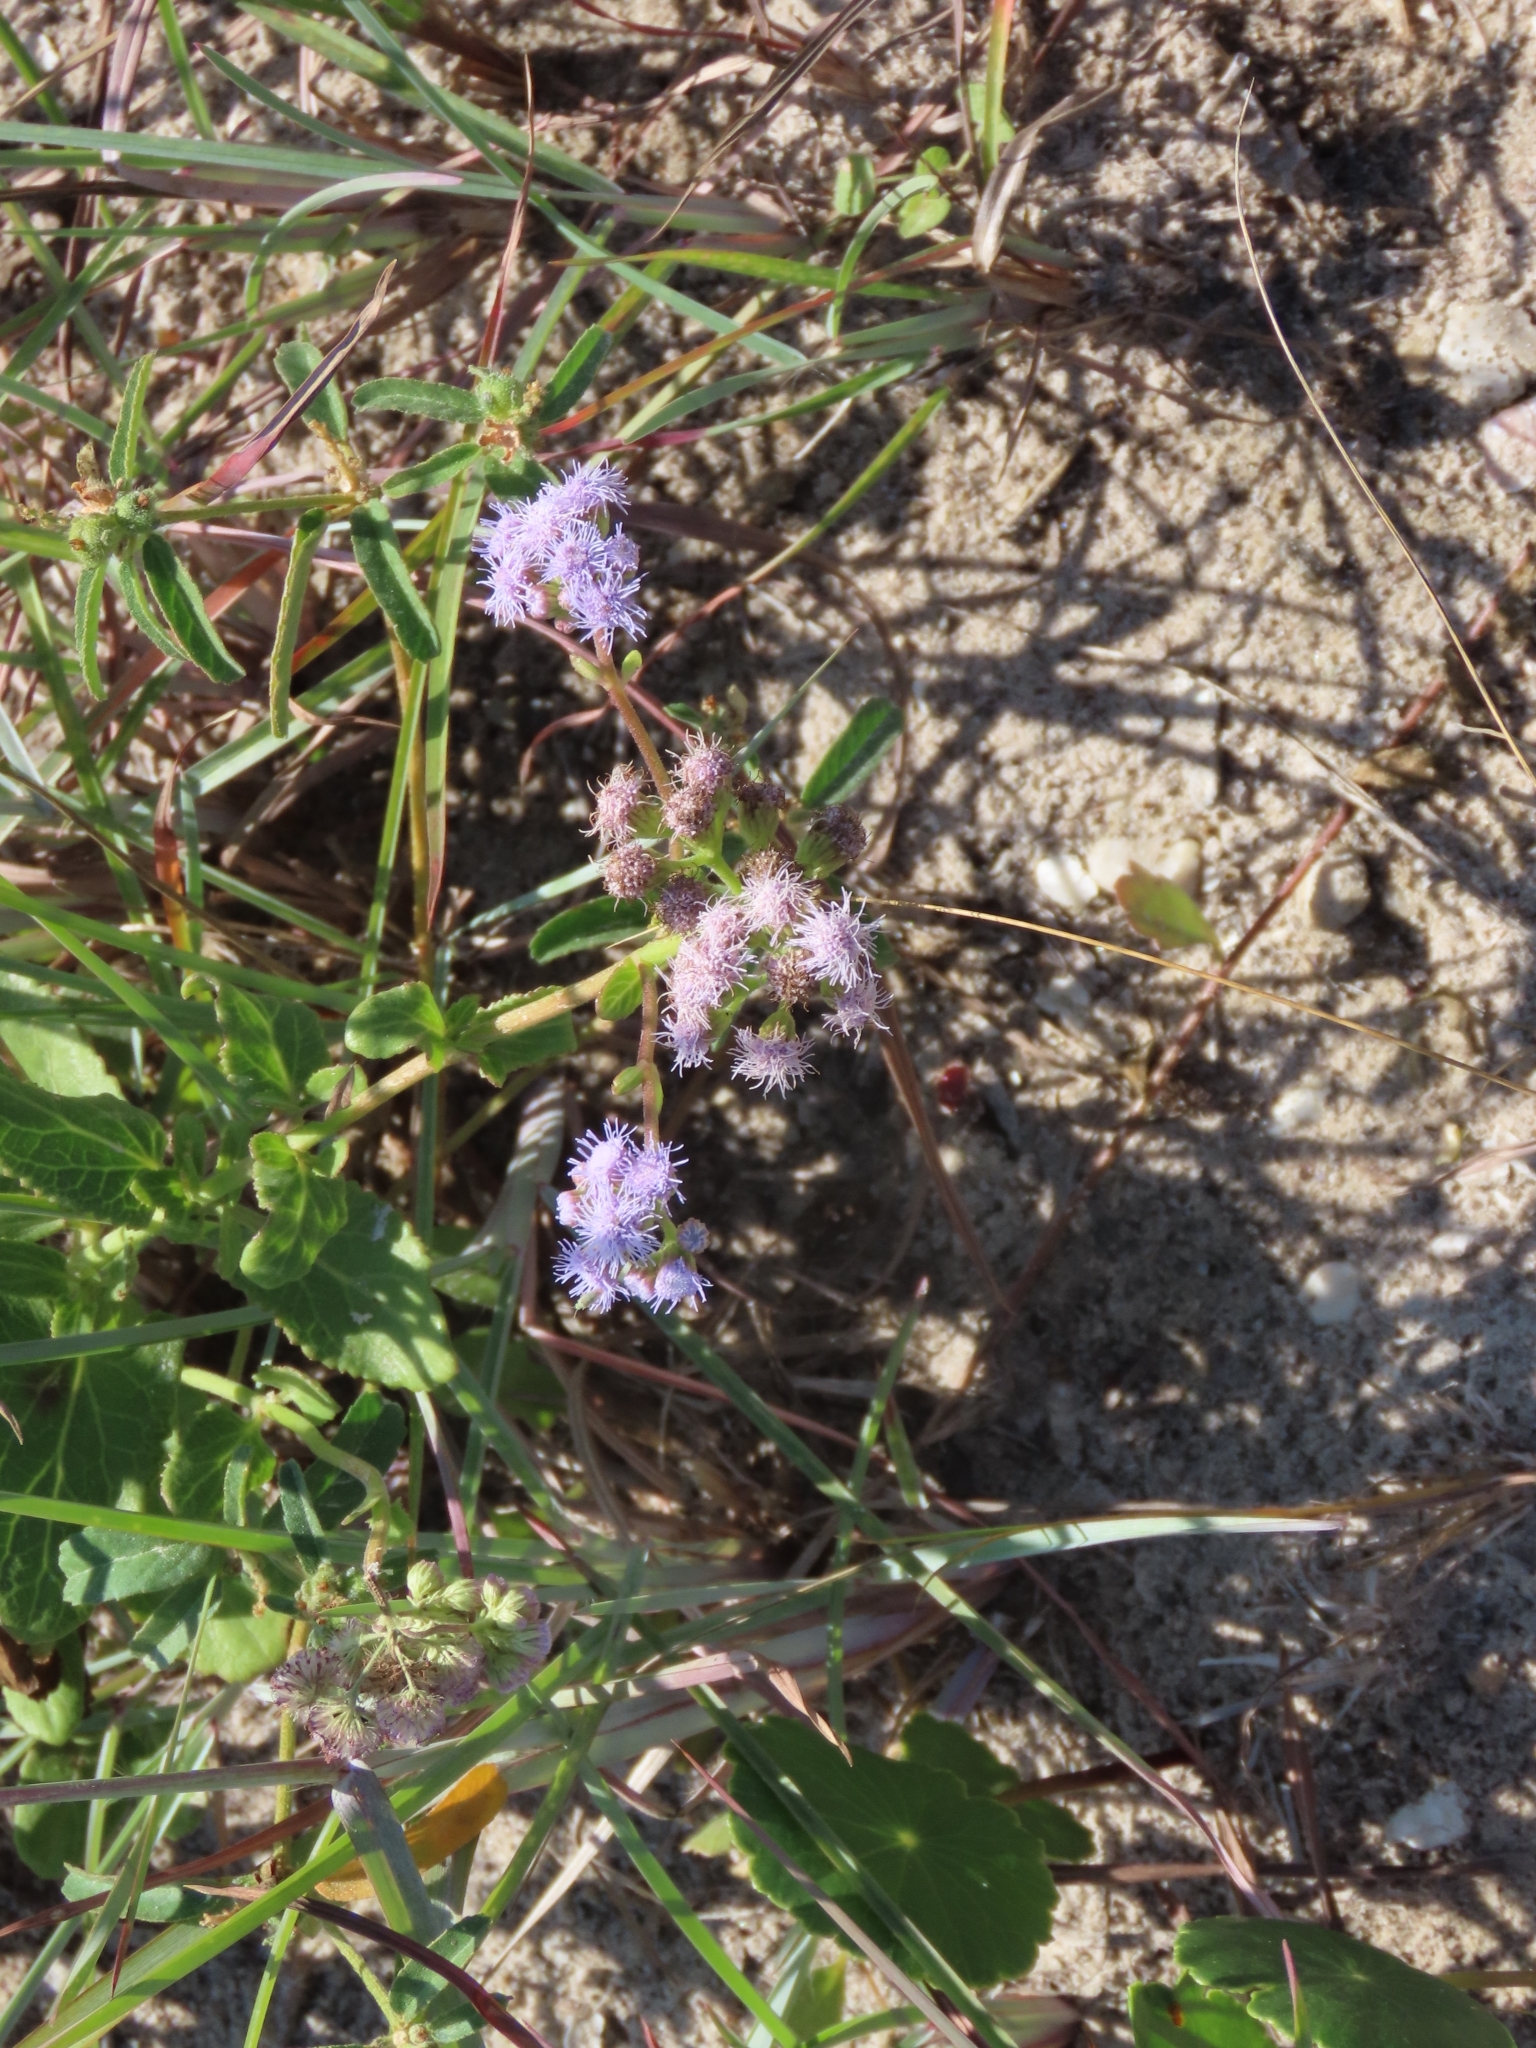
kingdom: Plantae
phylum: Tracheophyta
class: Magnoliopsida
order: Asterales
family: Asteraceae
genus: Conoclinium
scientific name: Conoclinium betonicifolium
